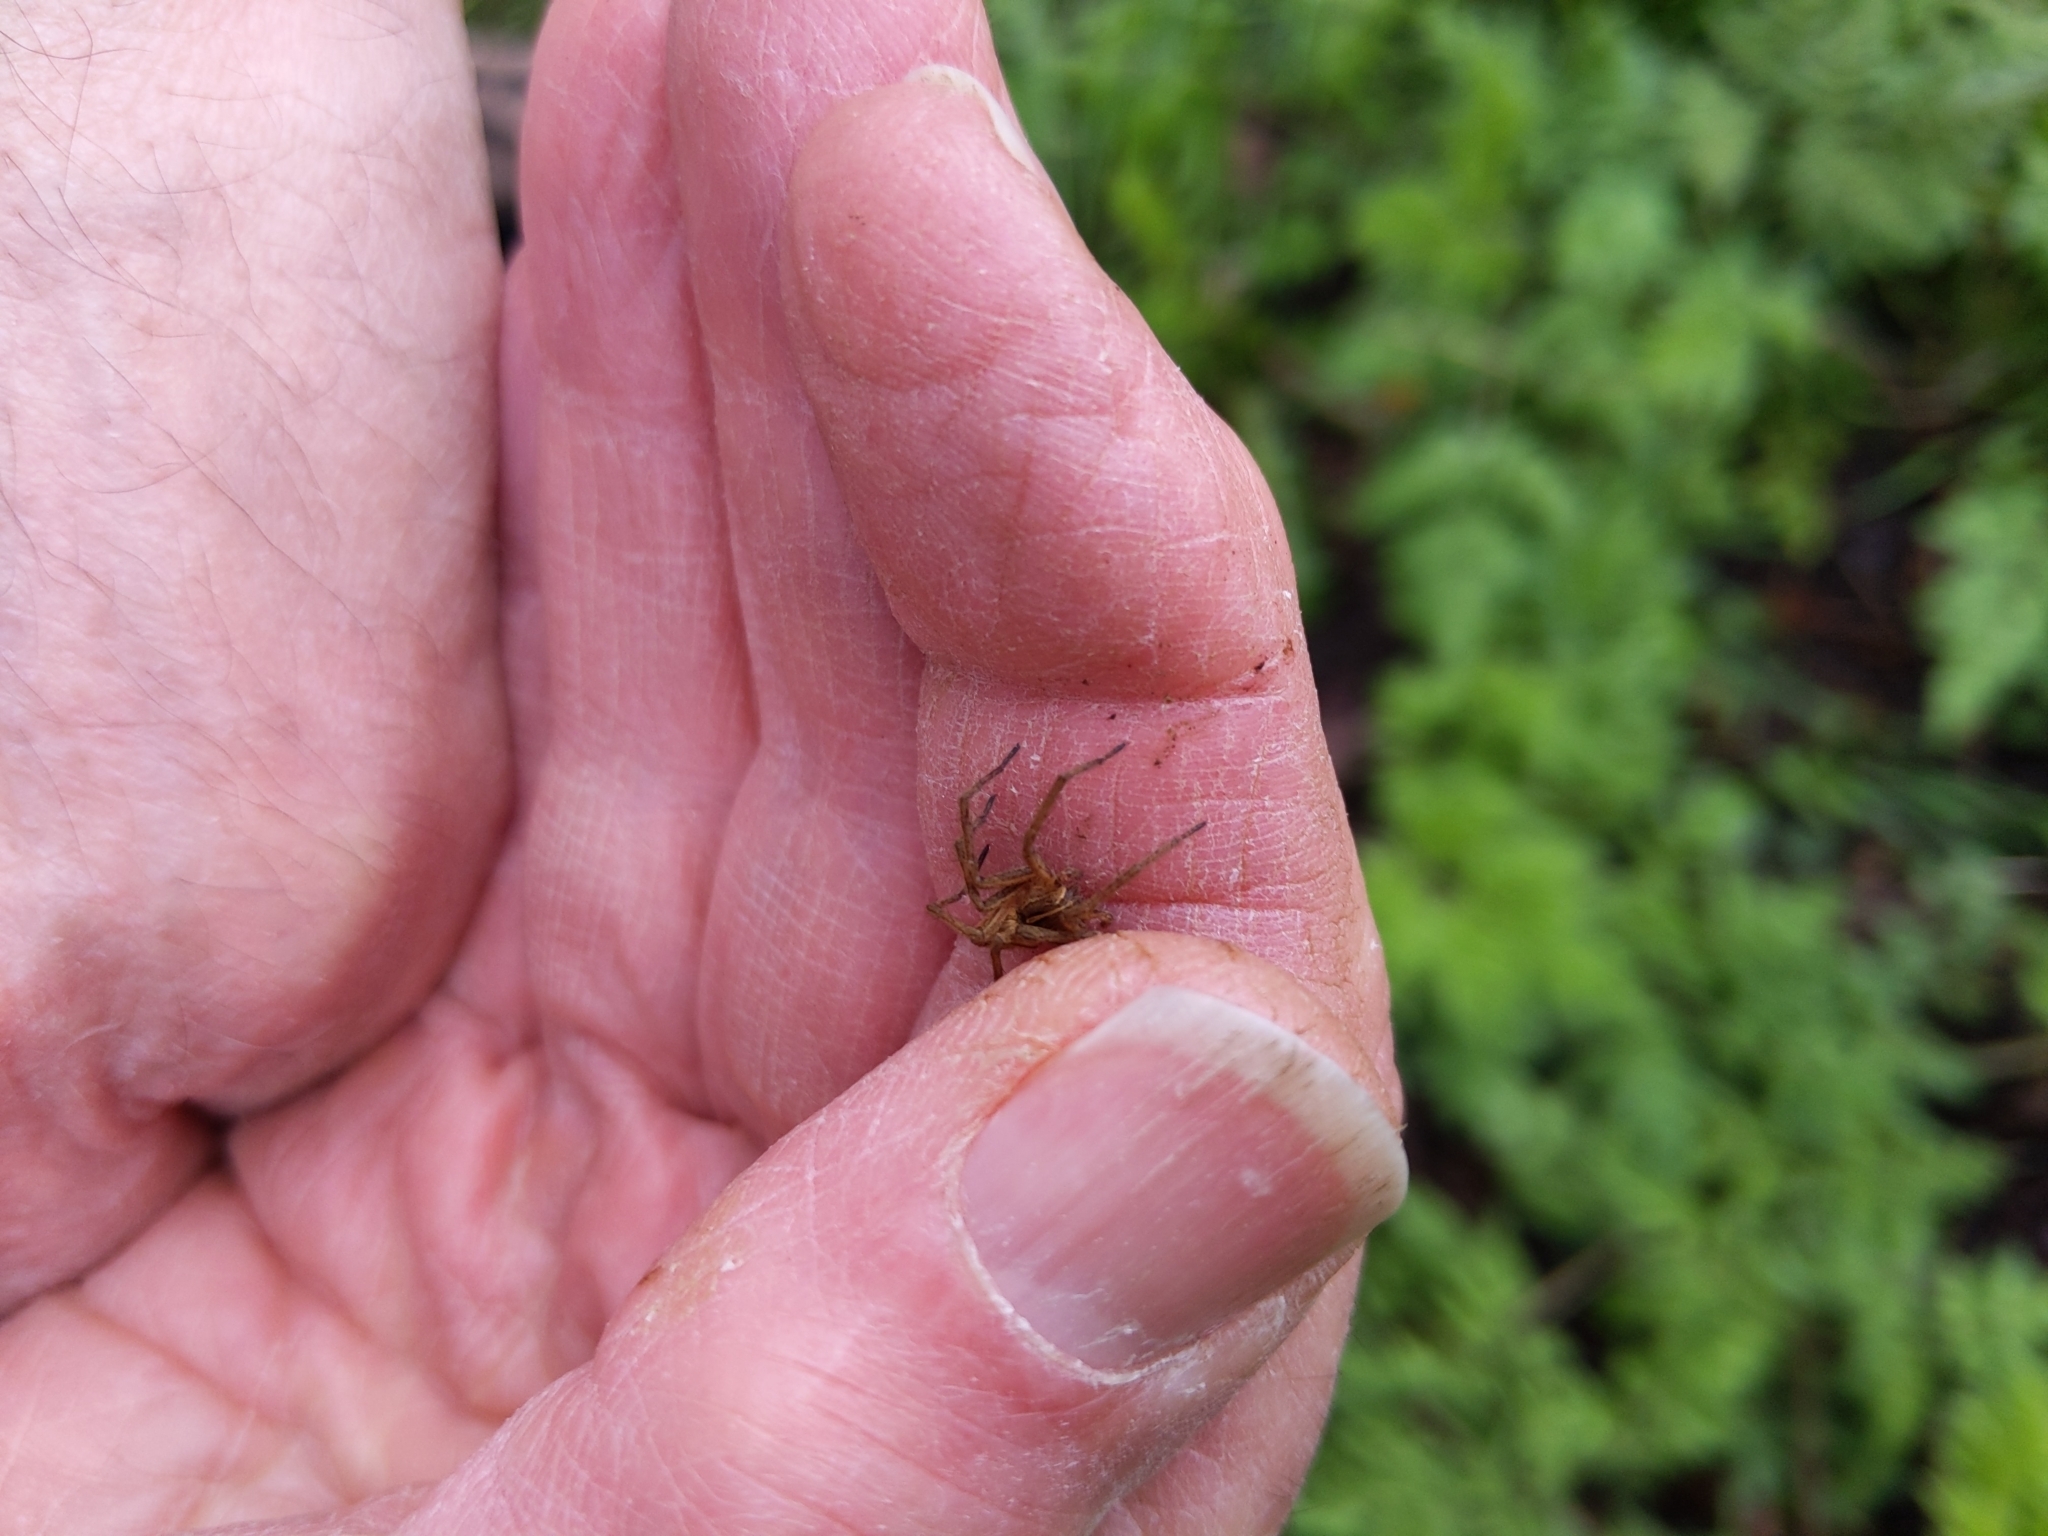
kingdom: Animalia
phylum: Arthropoda
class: Arachnida
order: Araneae
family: Pisauridae
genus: Pisaura
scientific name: Pisaura mirabilis
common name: Tent spider
